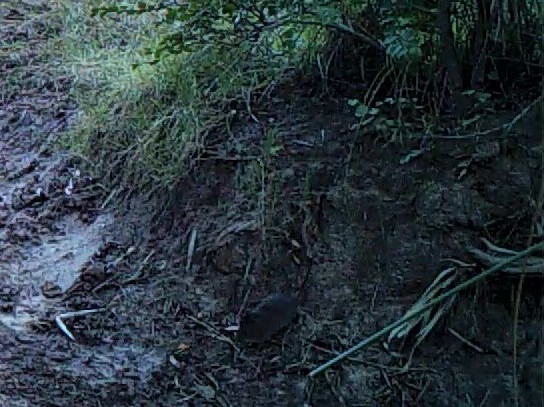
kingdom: Animalia
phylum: Chordata
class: Mammalia
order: Rodentia
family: Muridae
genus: Otomys
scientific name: Otomys irroratus
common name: Southern african vlei rat
